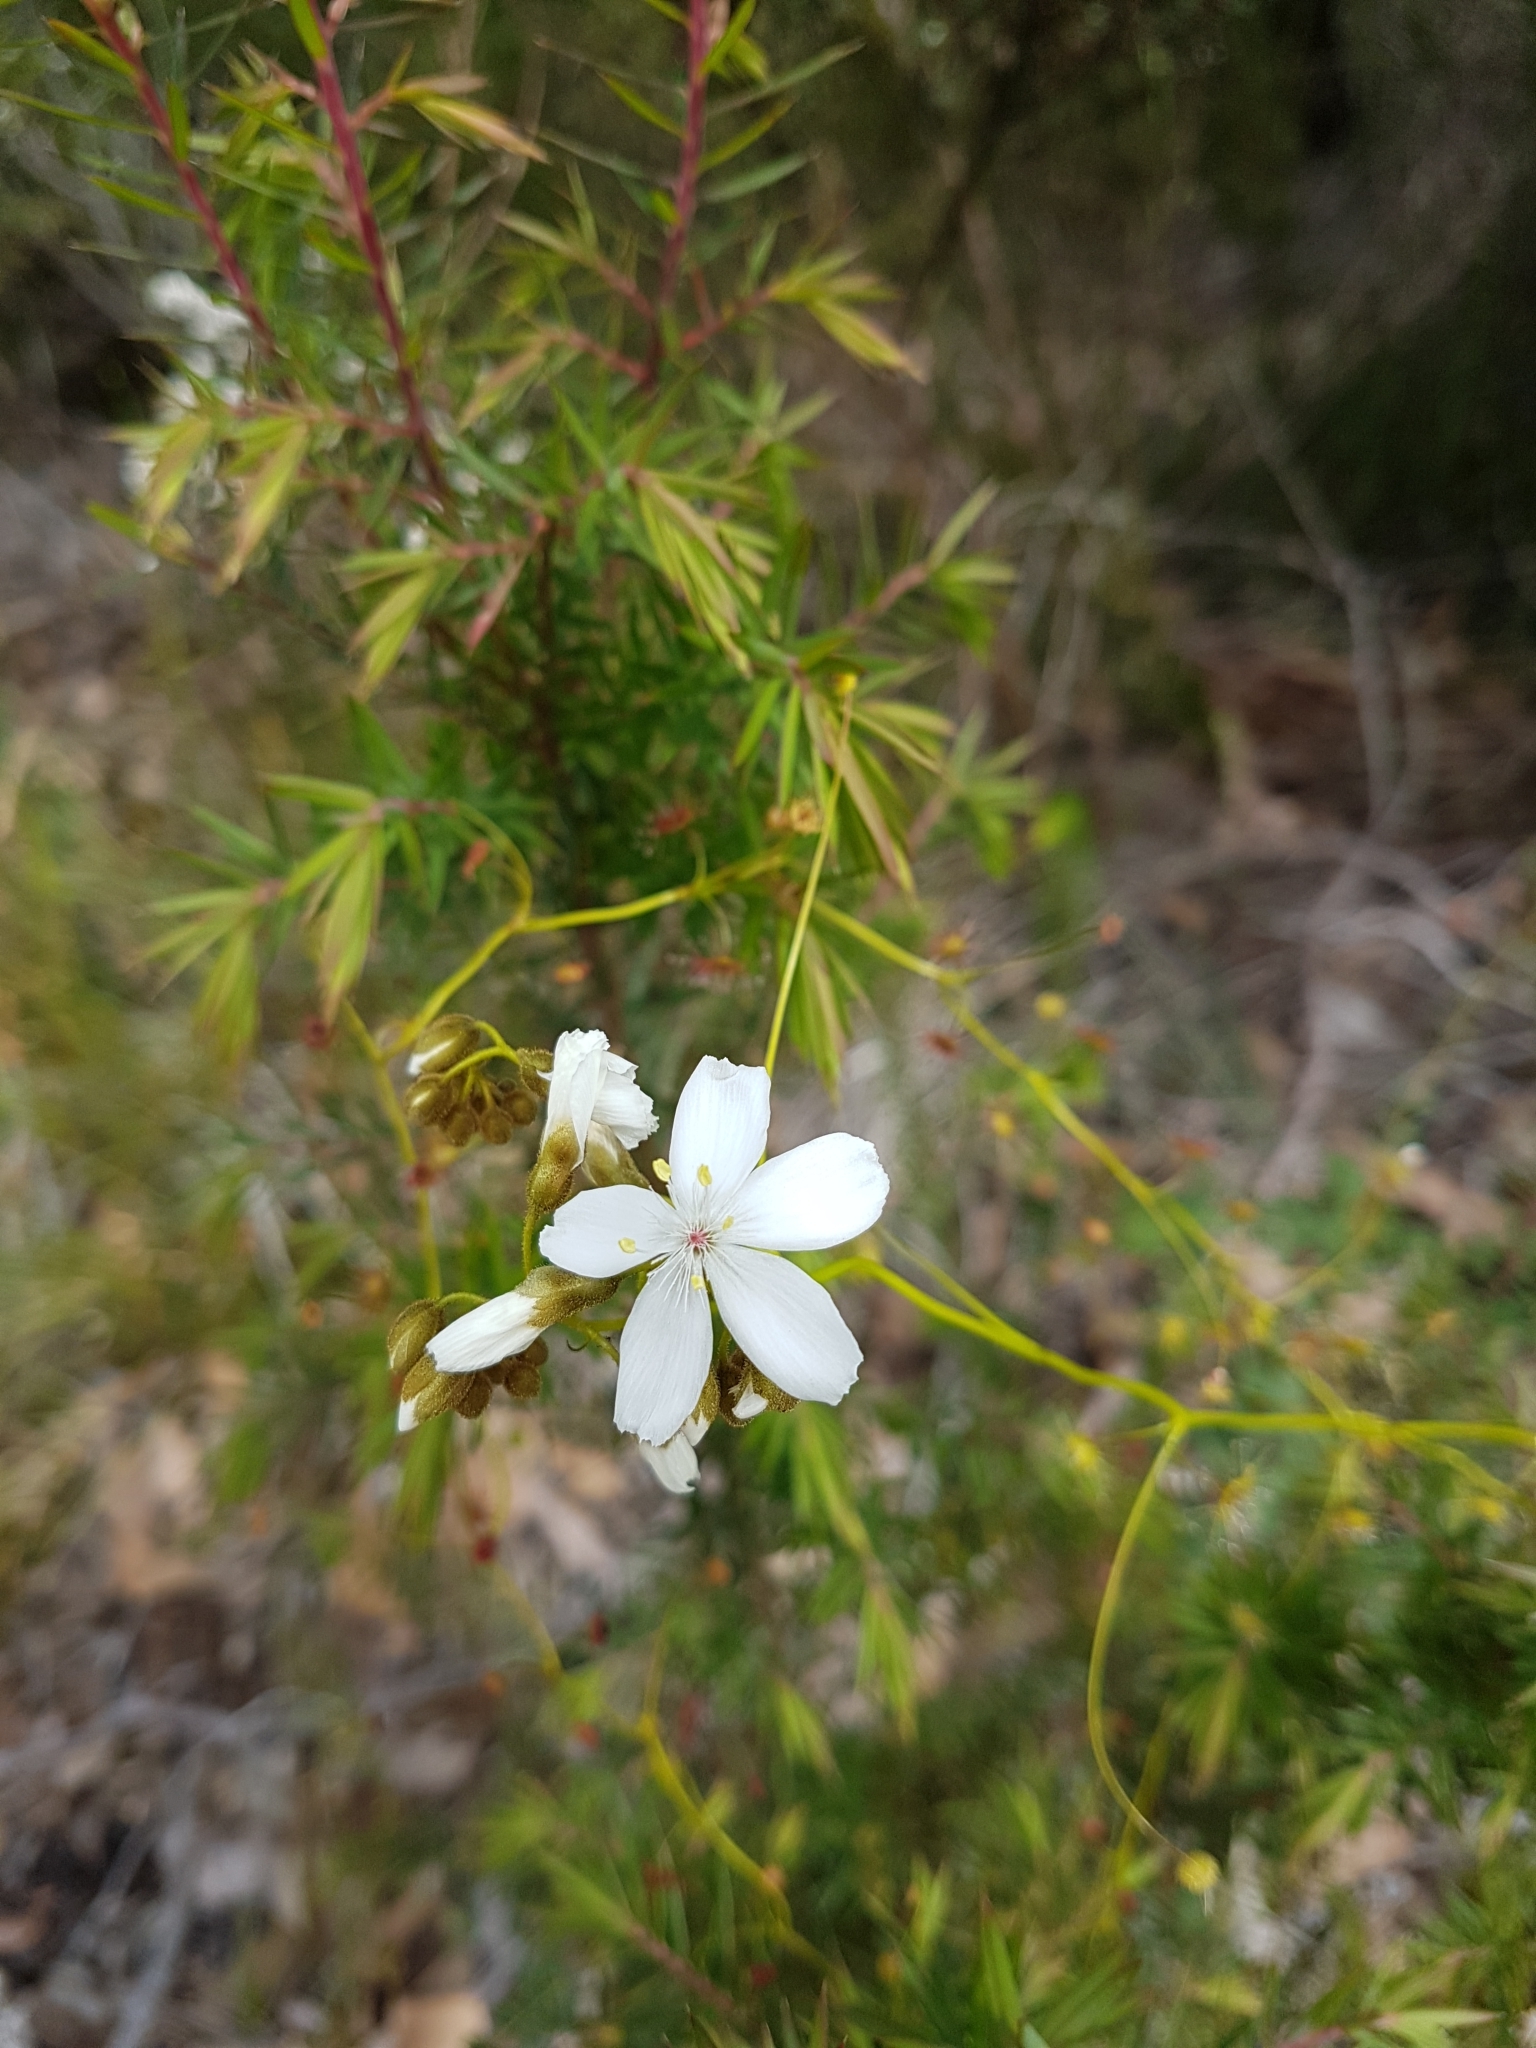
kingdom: Plantae
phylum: Tracheophyta
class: Magnoliopsida
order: Caryophyllales
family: Droseraceae
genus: Drosera
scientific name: Drosera erythrogyne
